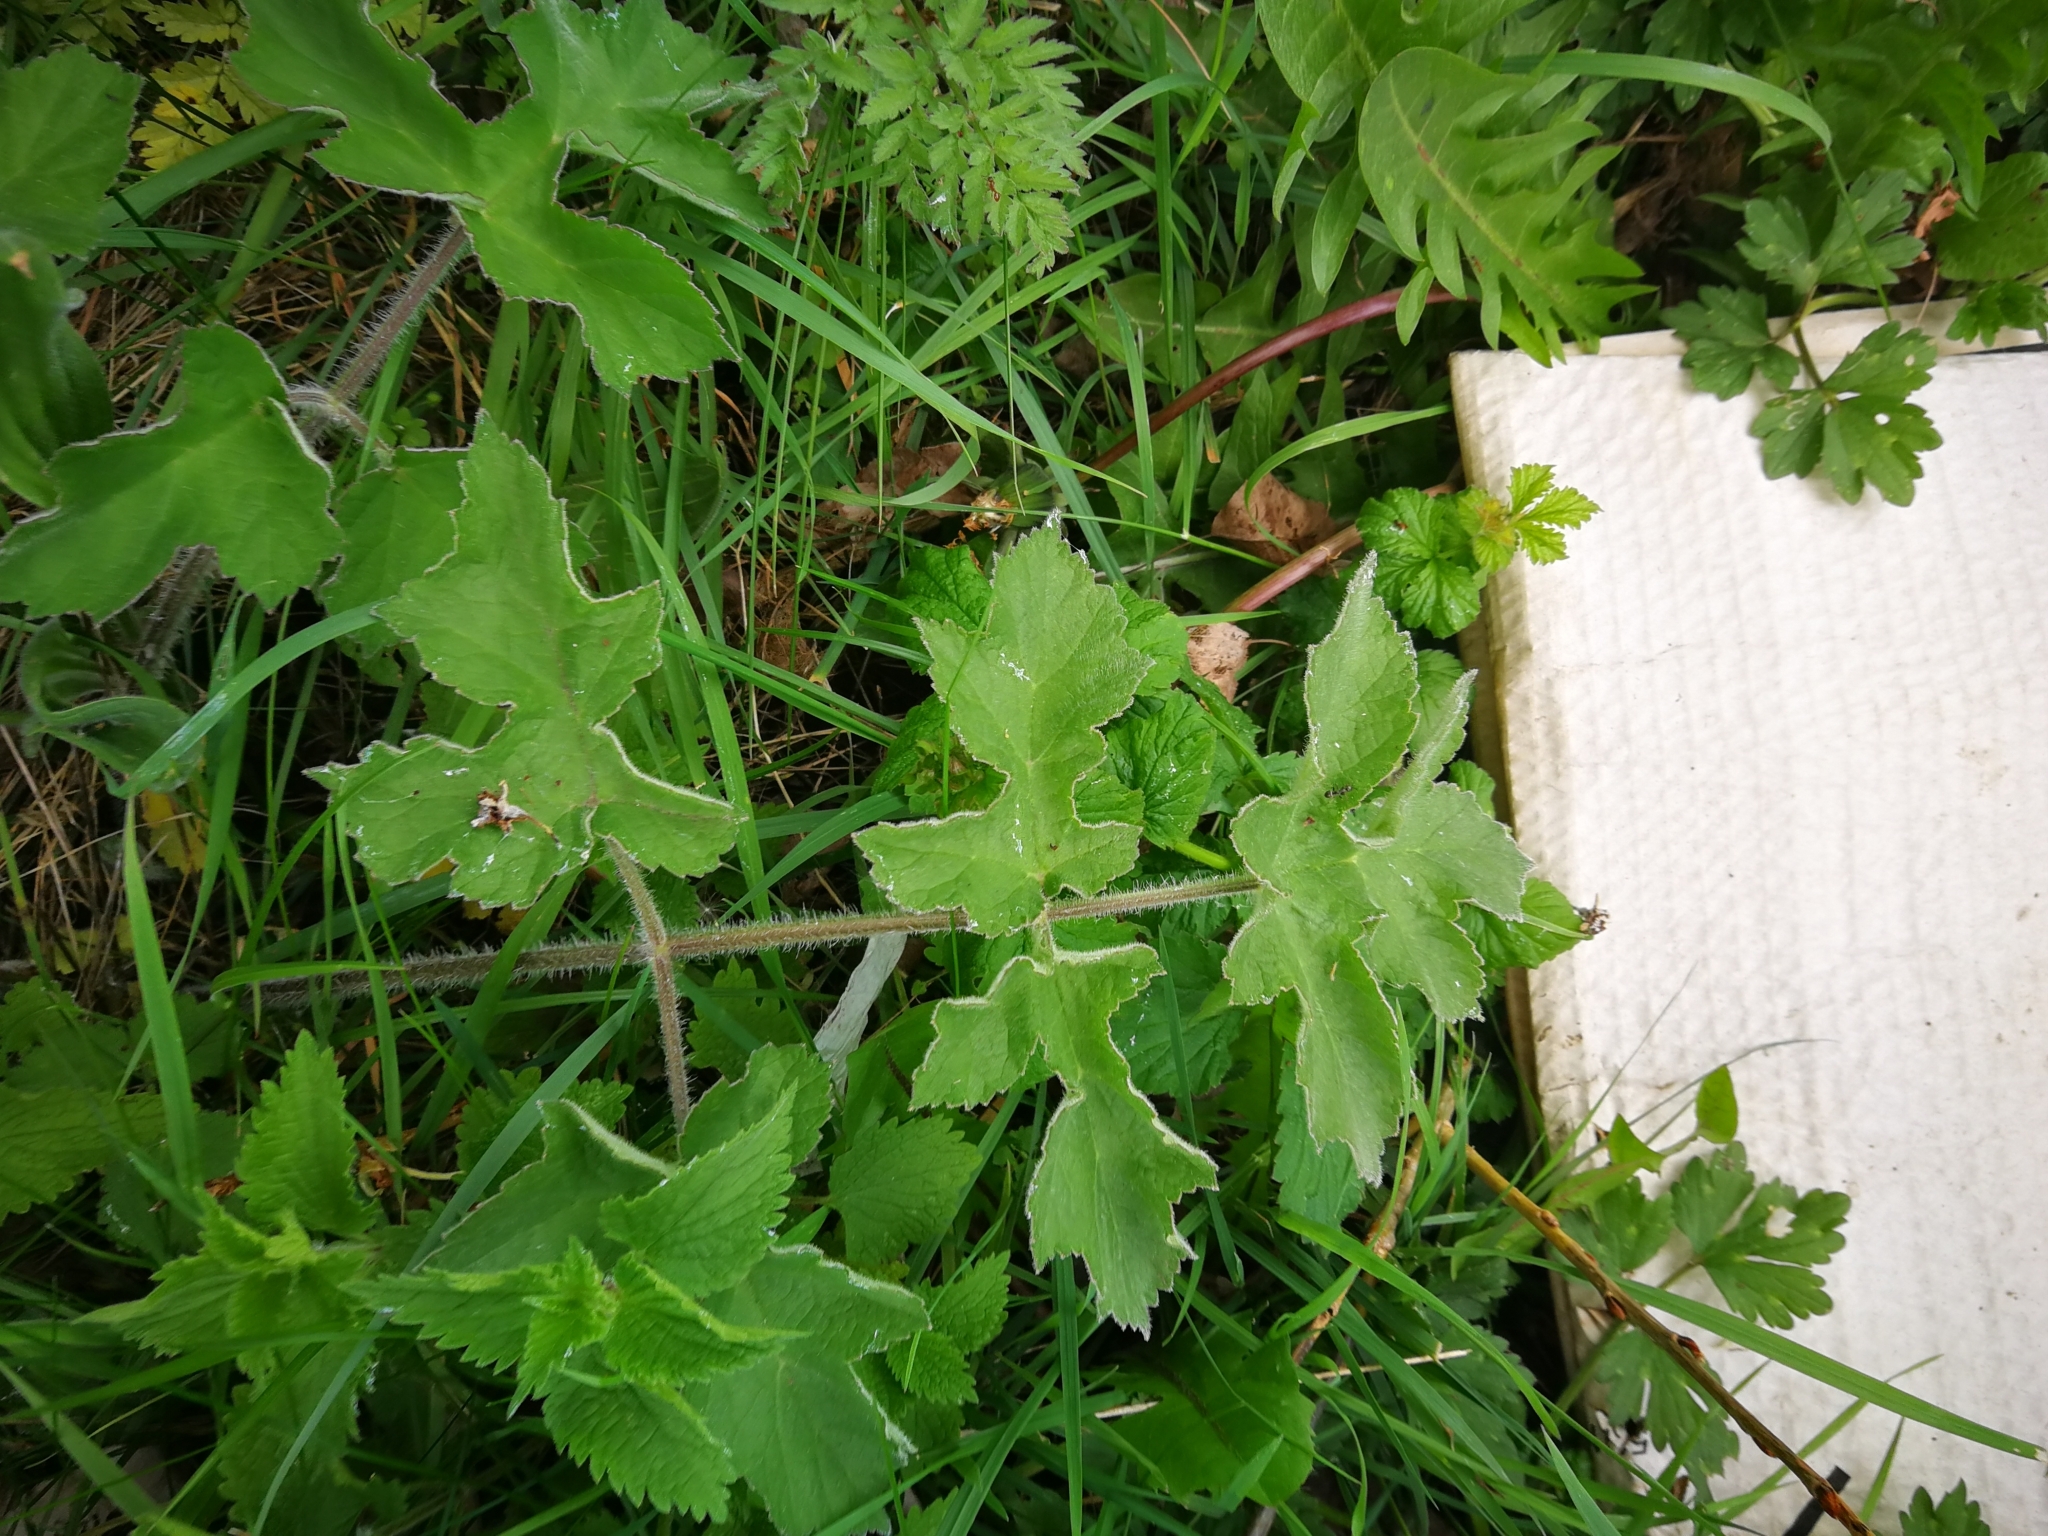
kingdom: Plantae
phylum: Tracheophyta
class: Magnoliopsida
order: Apiales
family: Apiaceae
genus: Heracleum
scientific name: Heracleum sphondylium
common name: Hogweed
